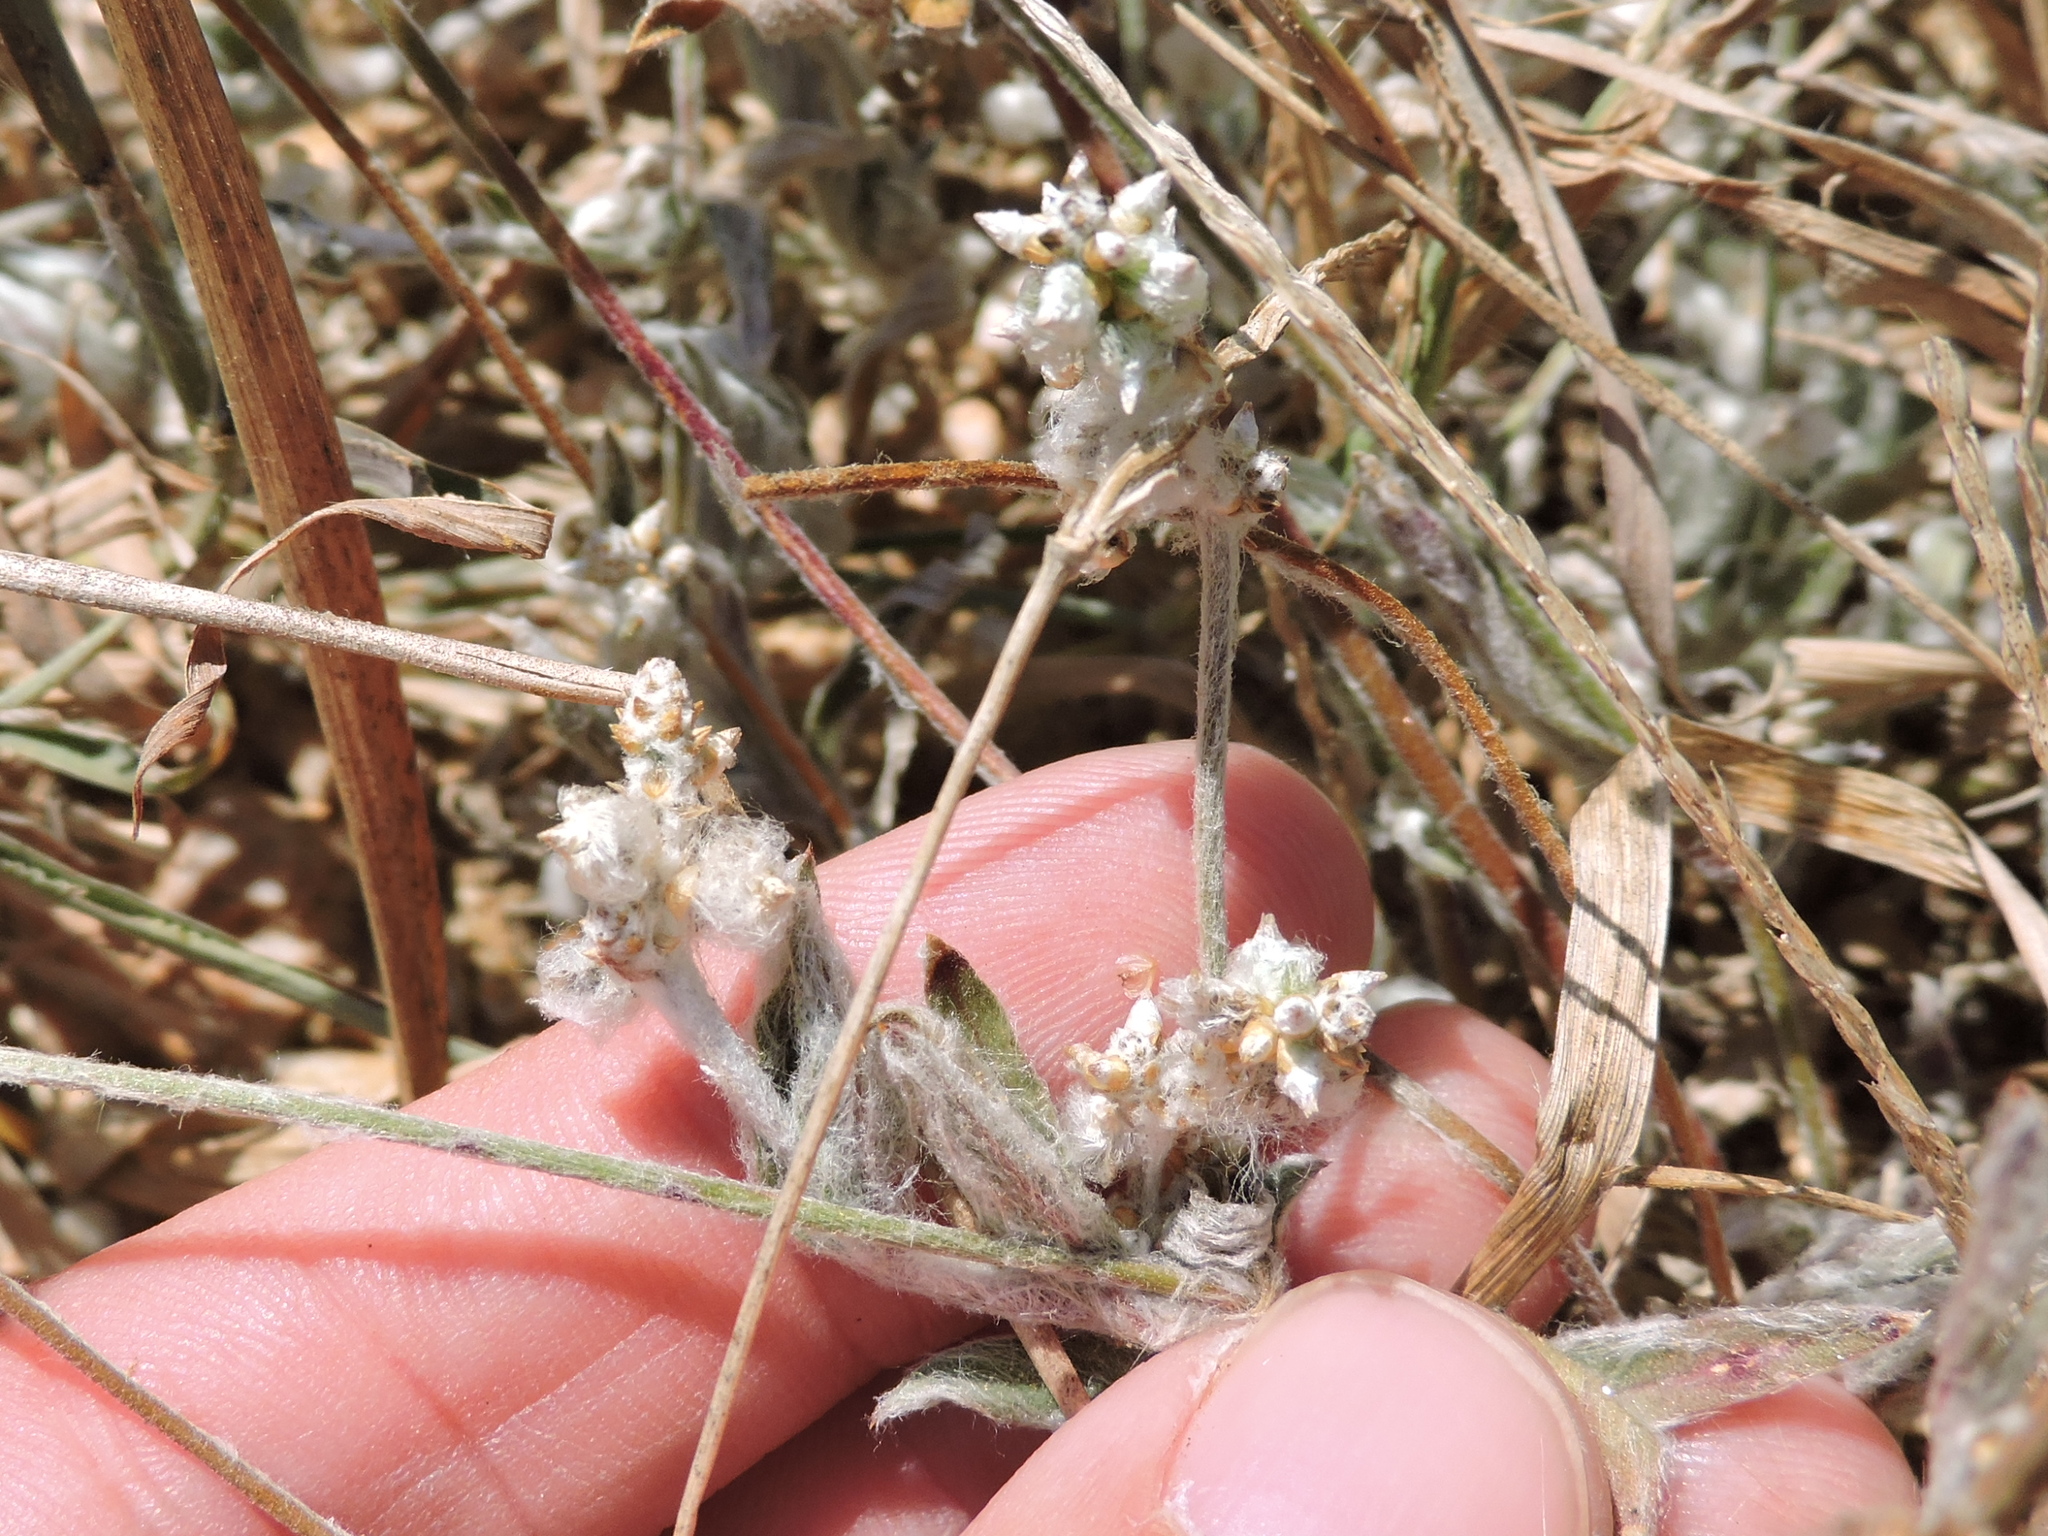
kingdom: Plantae
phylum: Tracheophyta
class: Magnoliopsida
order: Caryophyllales
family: Amaranthaceae
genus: Froelichia
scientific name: Froelichia floridana
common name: Florida snake-cotton
